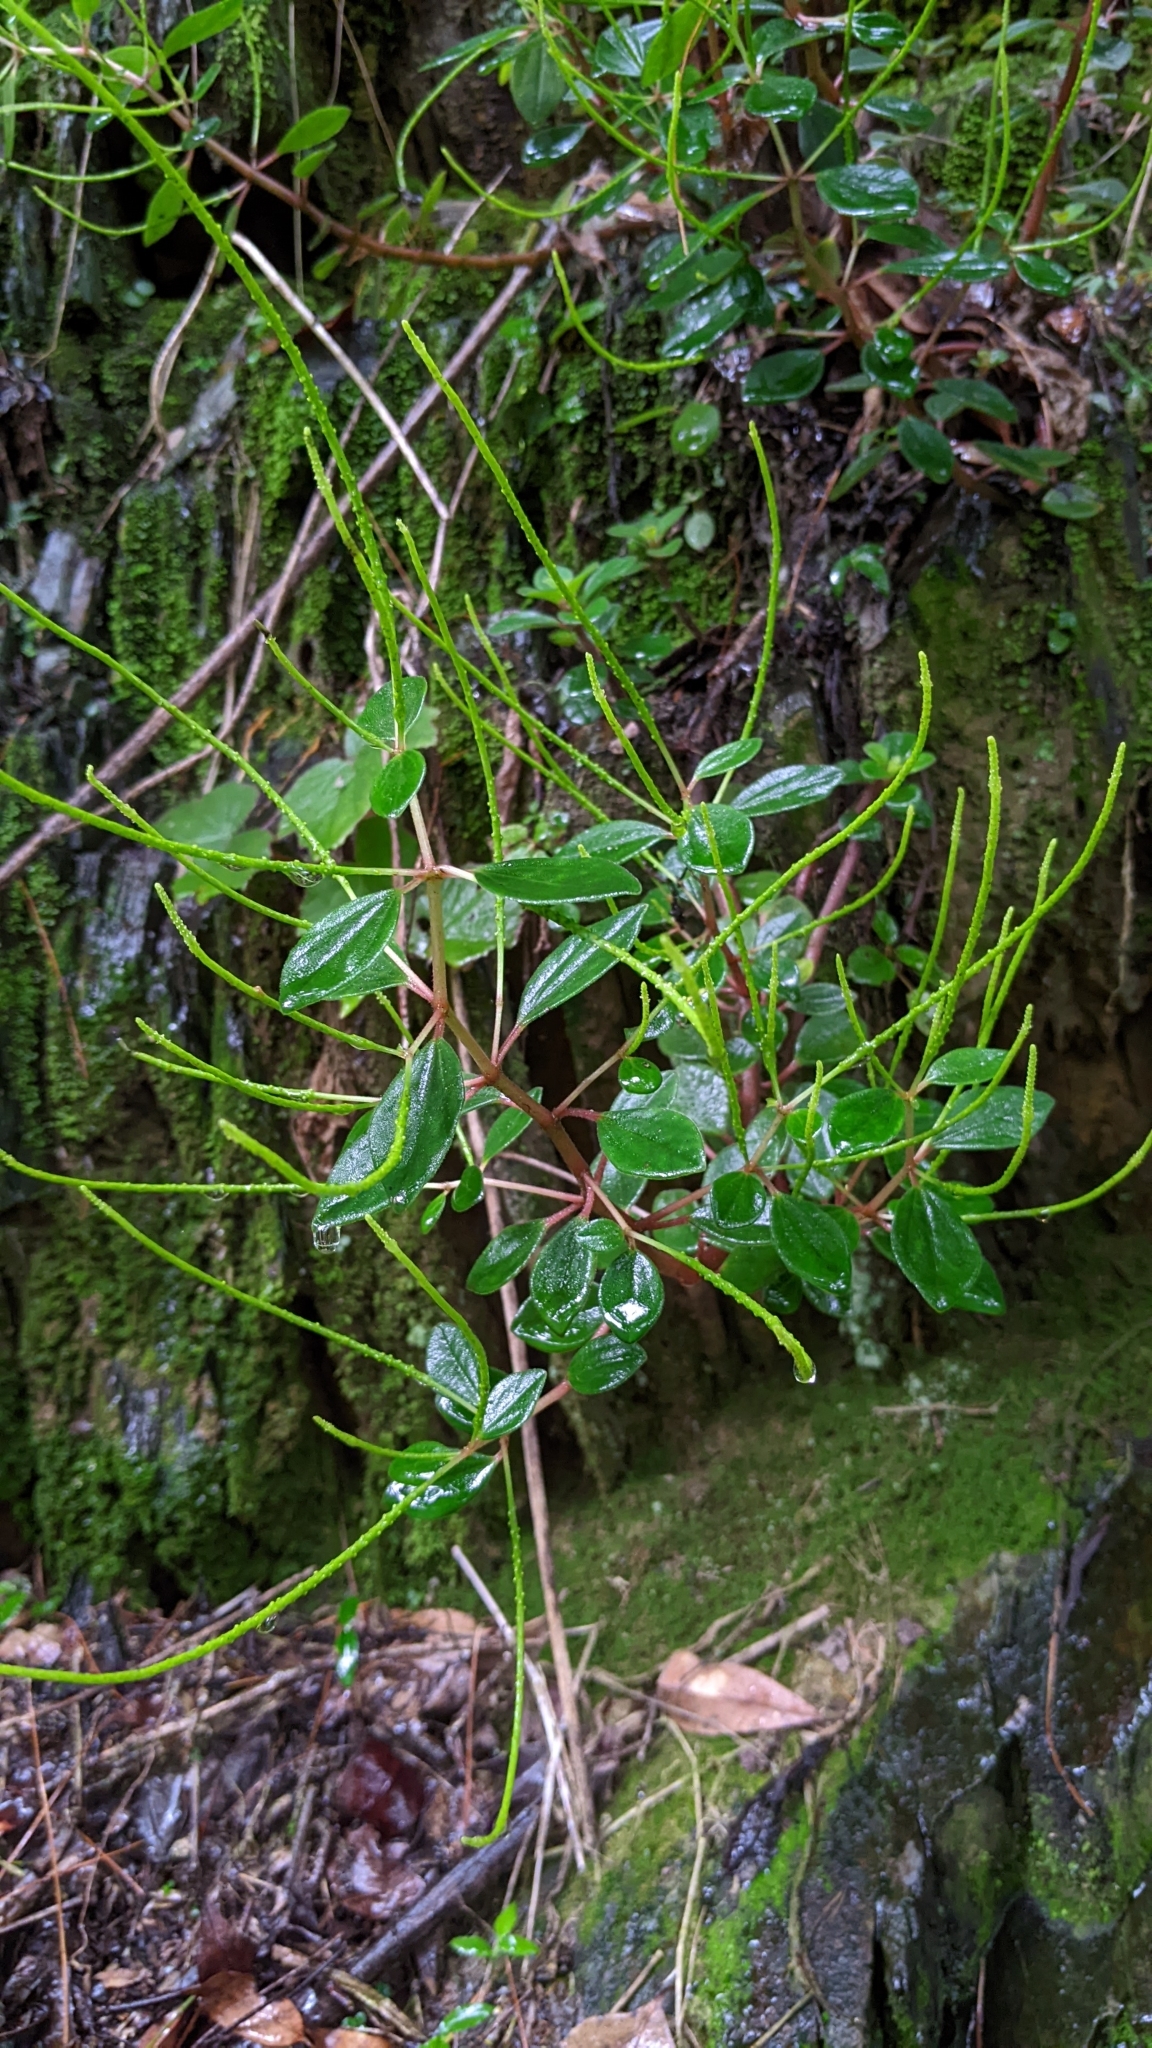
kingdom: Plantae
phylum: Tracheophyta
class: Magnoliopsida
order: Piperales
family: Piperaceae
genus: Peperomia
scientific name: Peperomia japonica
